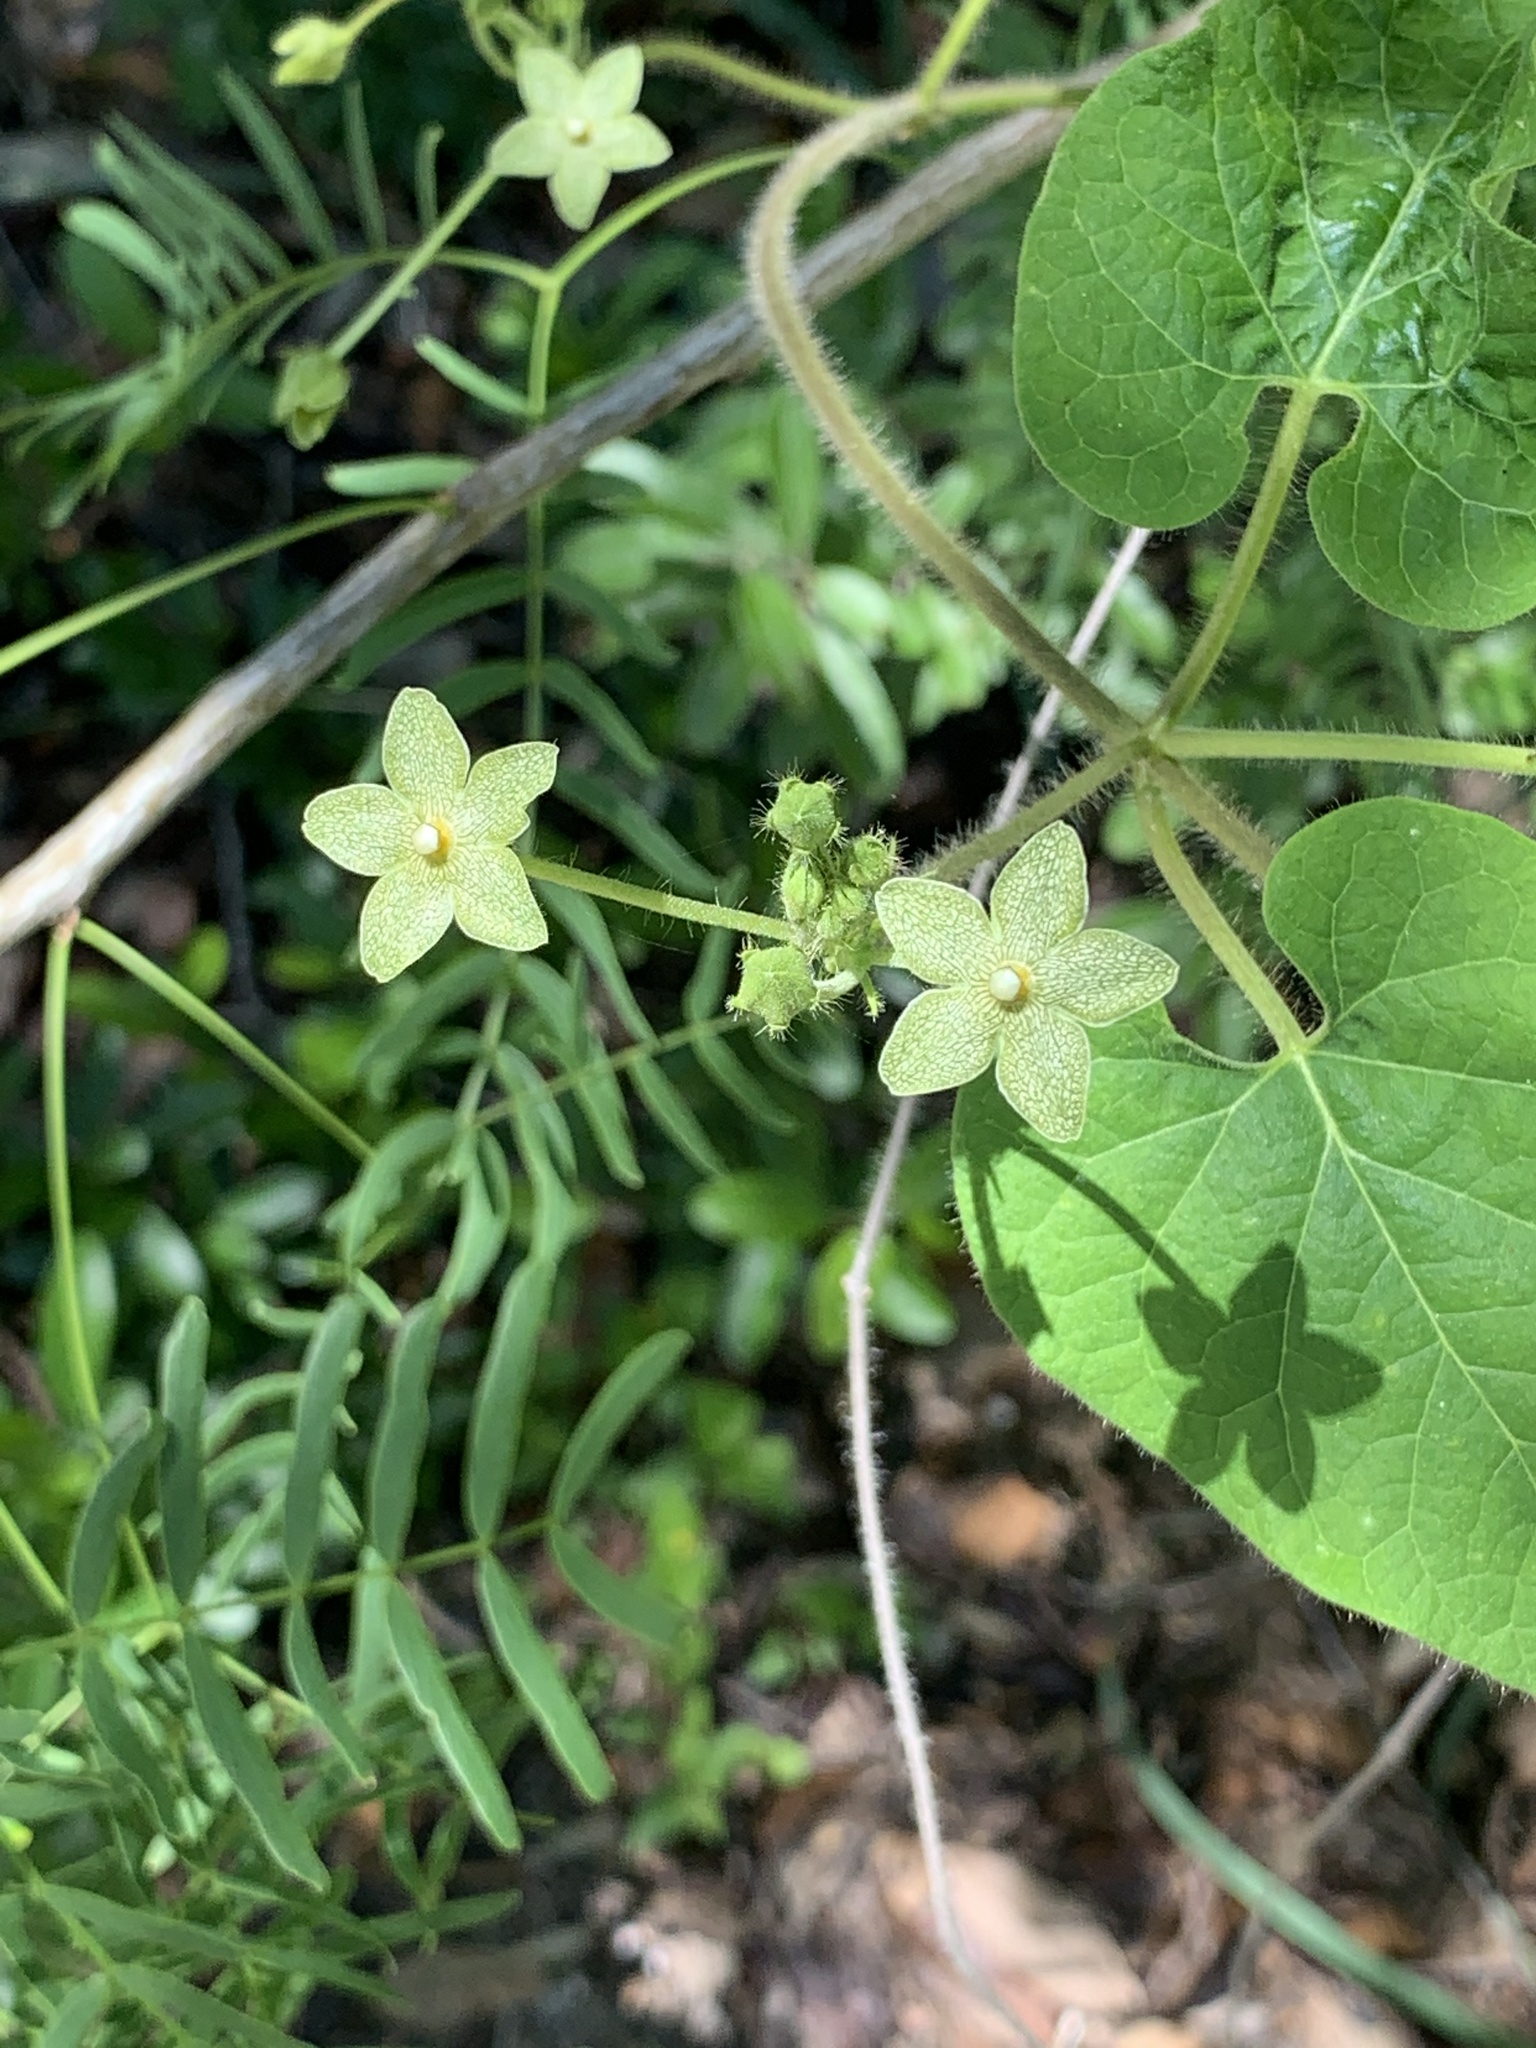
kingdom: Plantae
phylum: Tracheophyta
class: Magnoliopsida
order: Gentianales
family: Apocynaceae
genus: Dictyanthus
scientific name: Dictyanthus reticulatus
